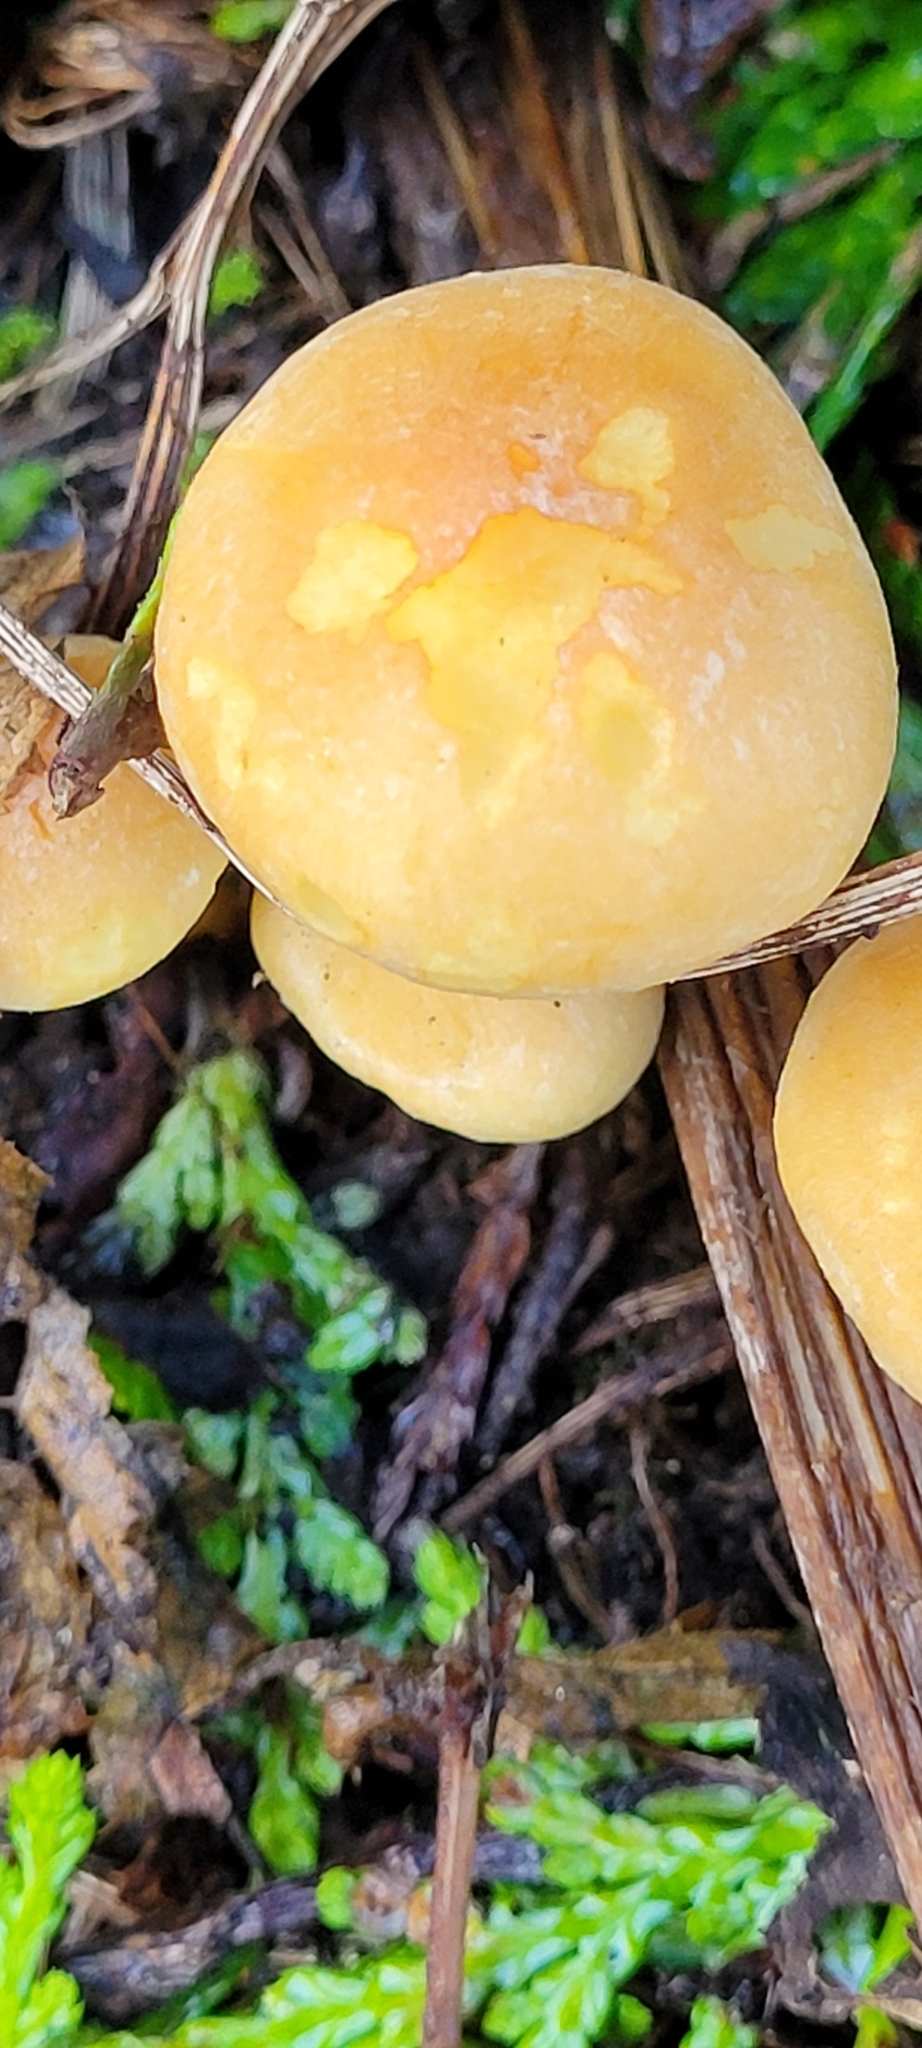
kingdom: Fungi
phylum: Basidiomycota
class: Agaricomycetes
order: Agaricales
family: Strophariaceae
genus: Hypholoma
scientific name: Hypholoma fasciculare
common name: Sulphur tuft
